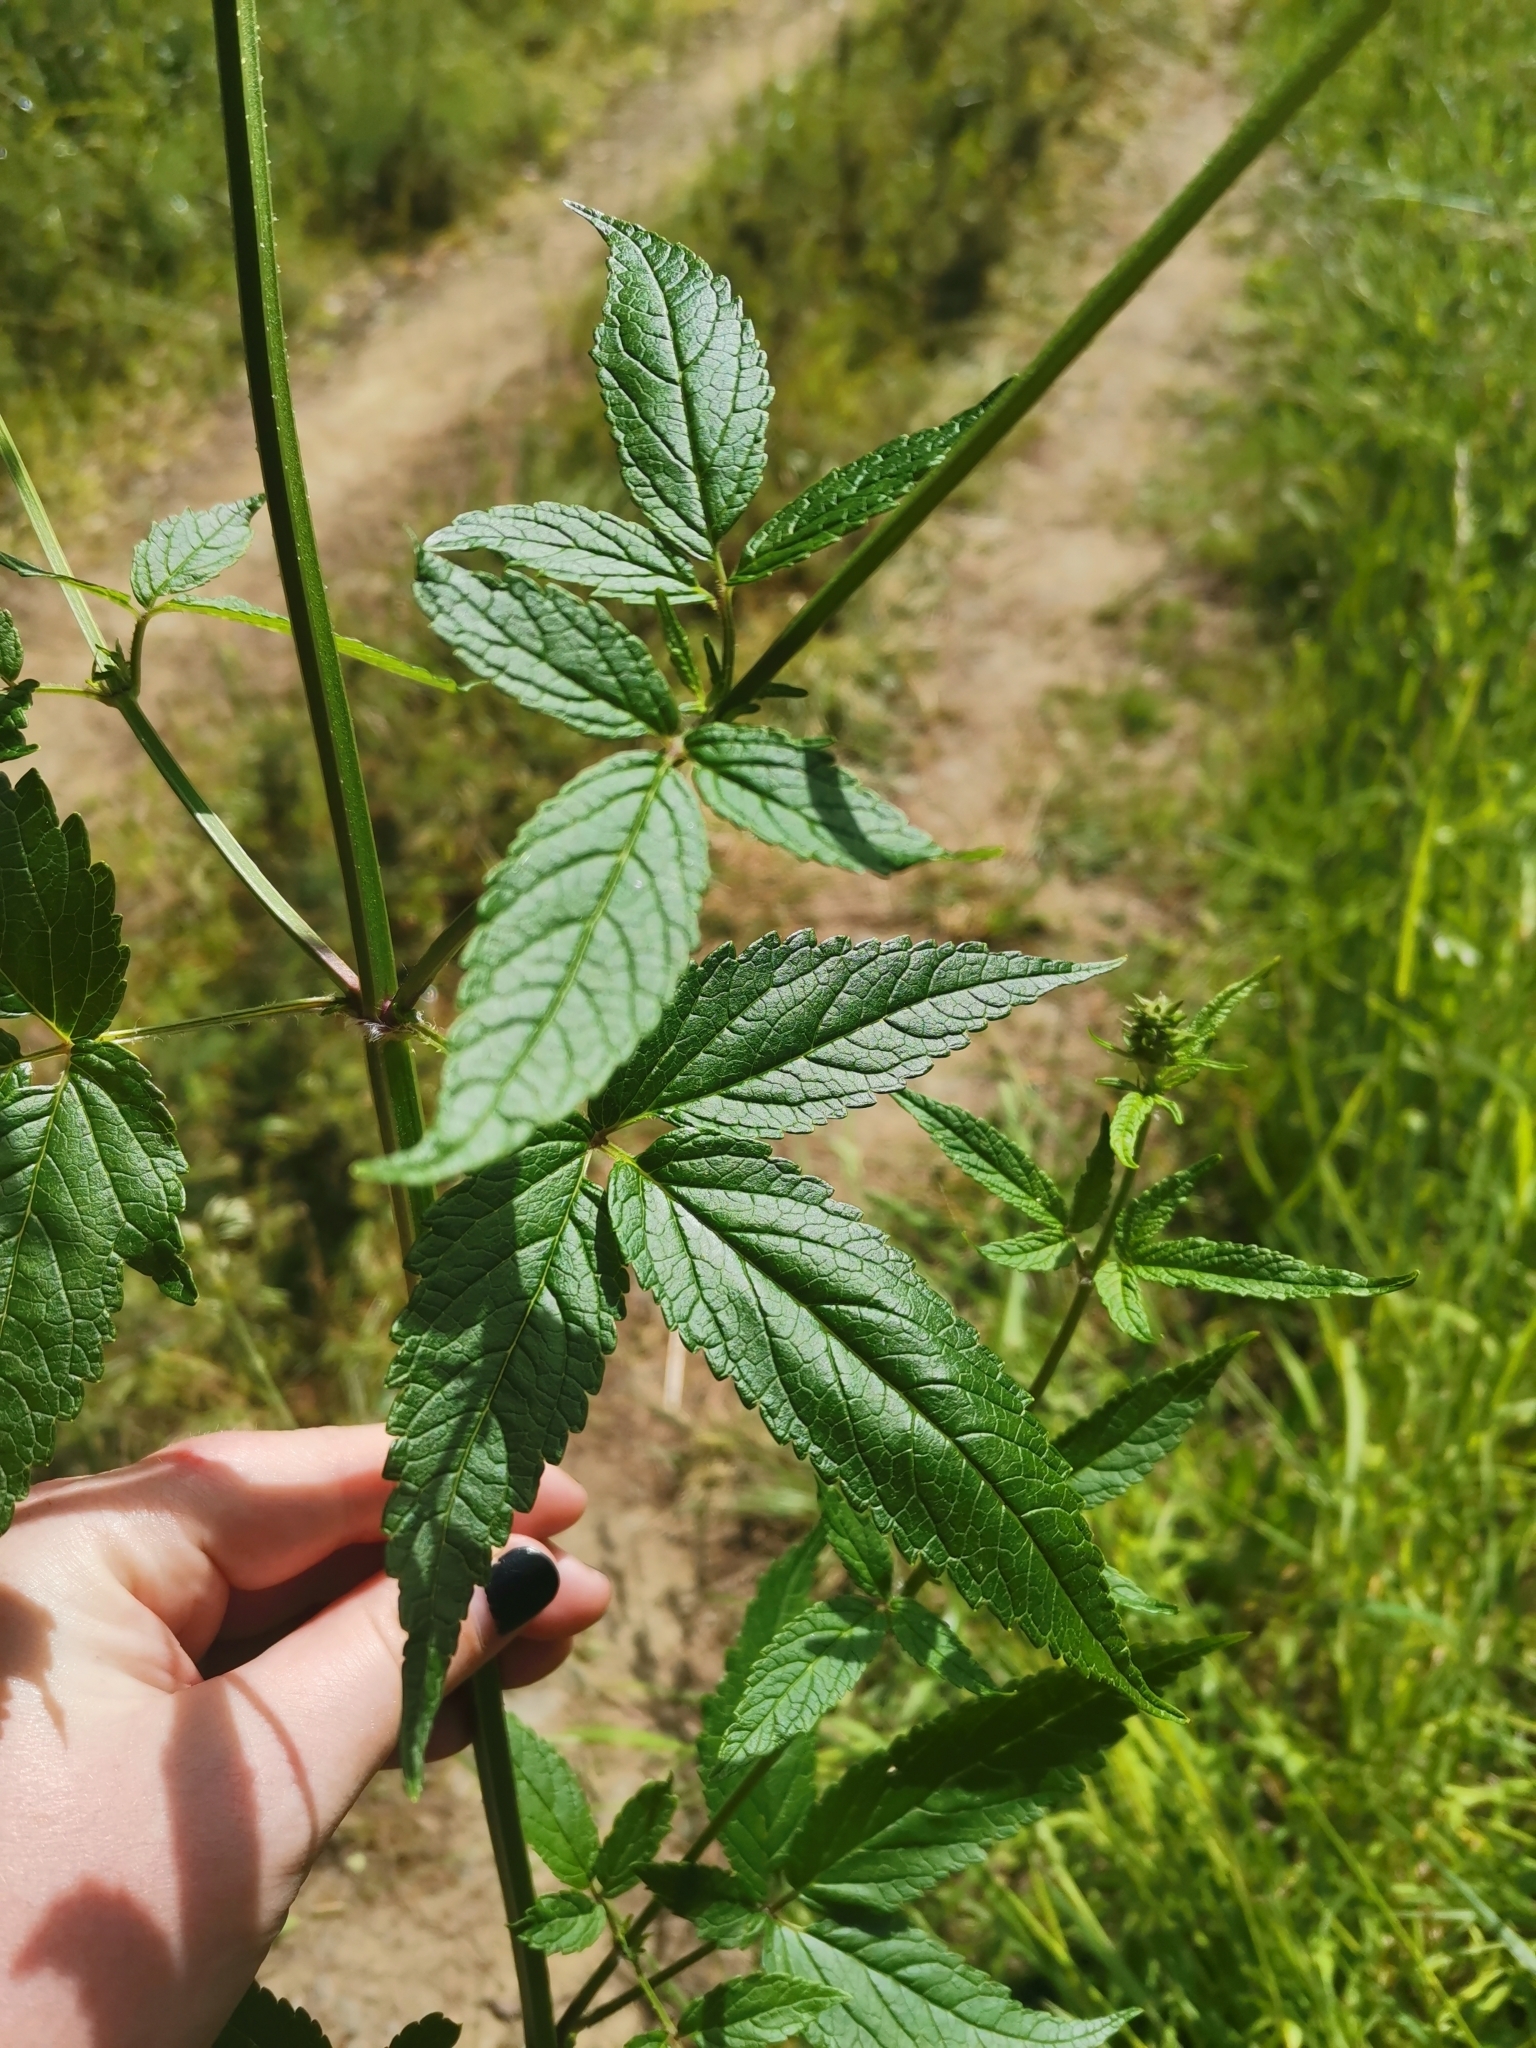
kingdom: Plantae
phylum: Tracheophyta
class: Magnoliopsida
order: Lamiales
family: Lamiaceae
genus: Cedronella
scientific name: Cedronella canariensis
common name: Canary islands balm
